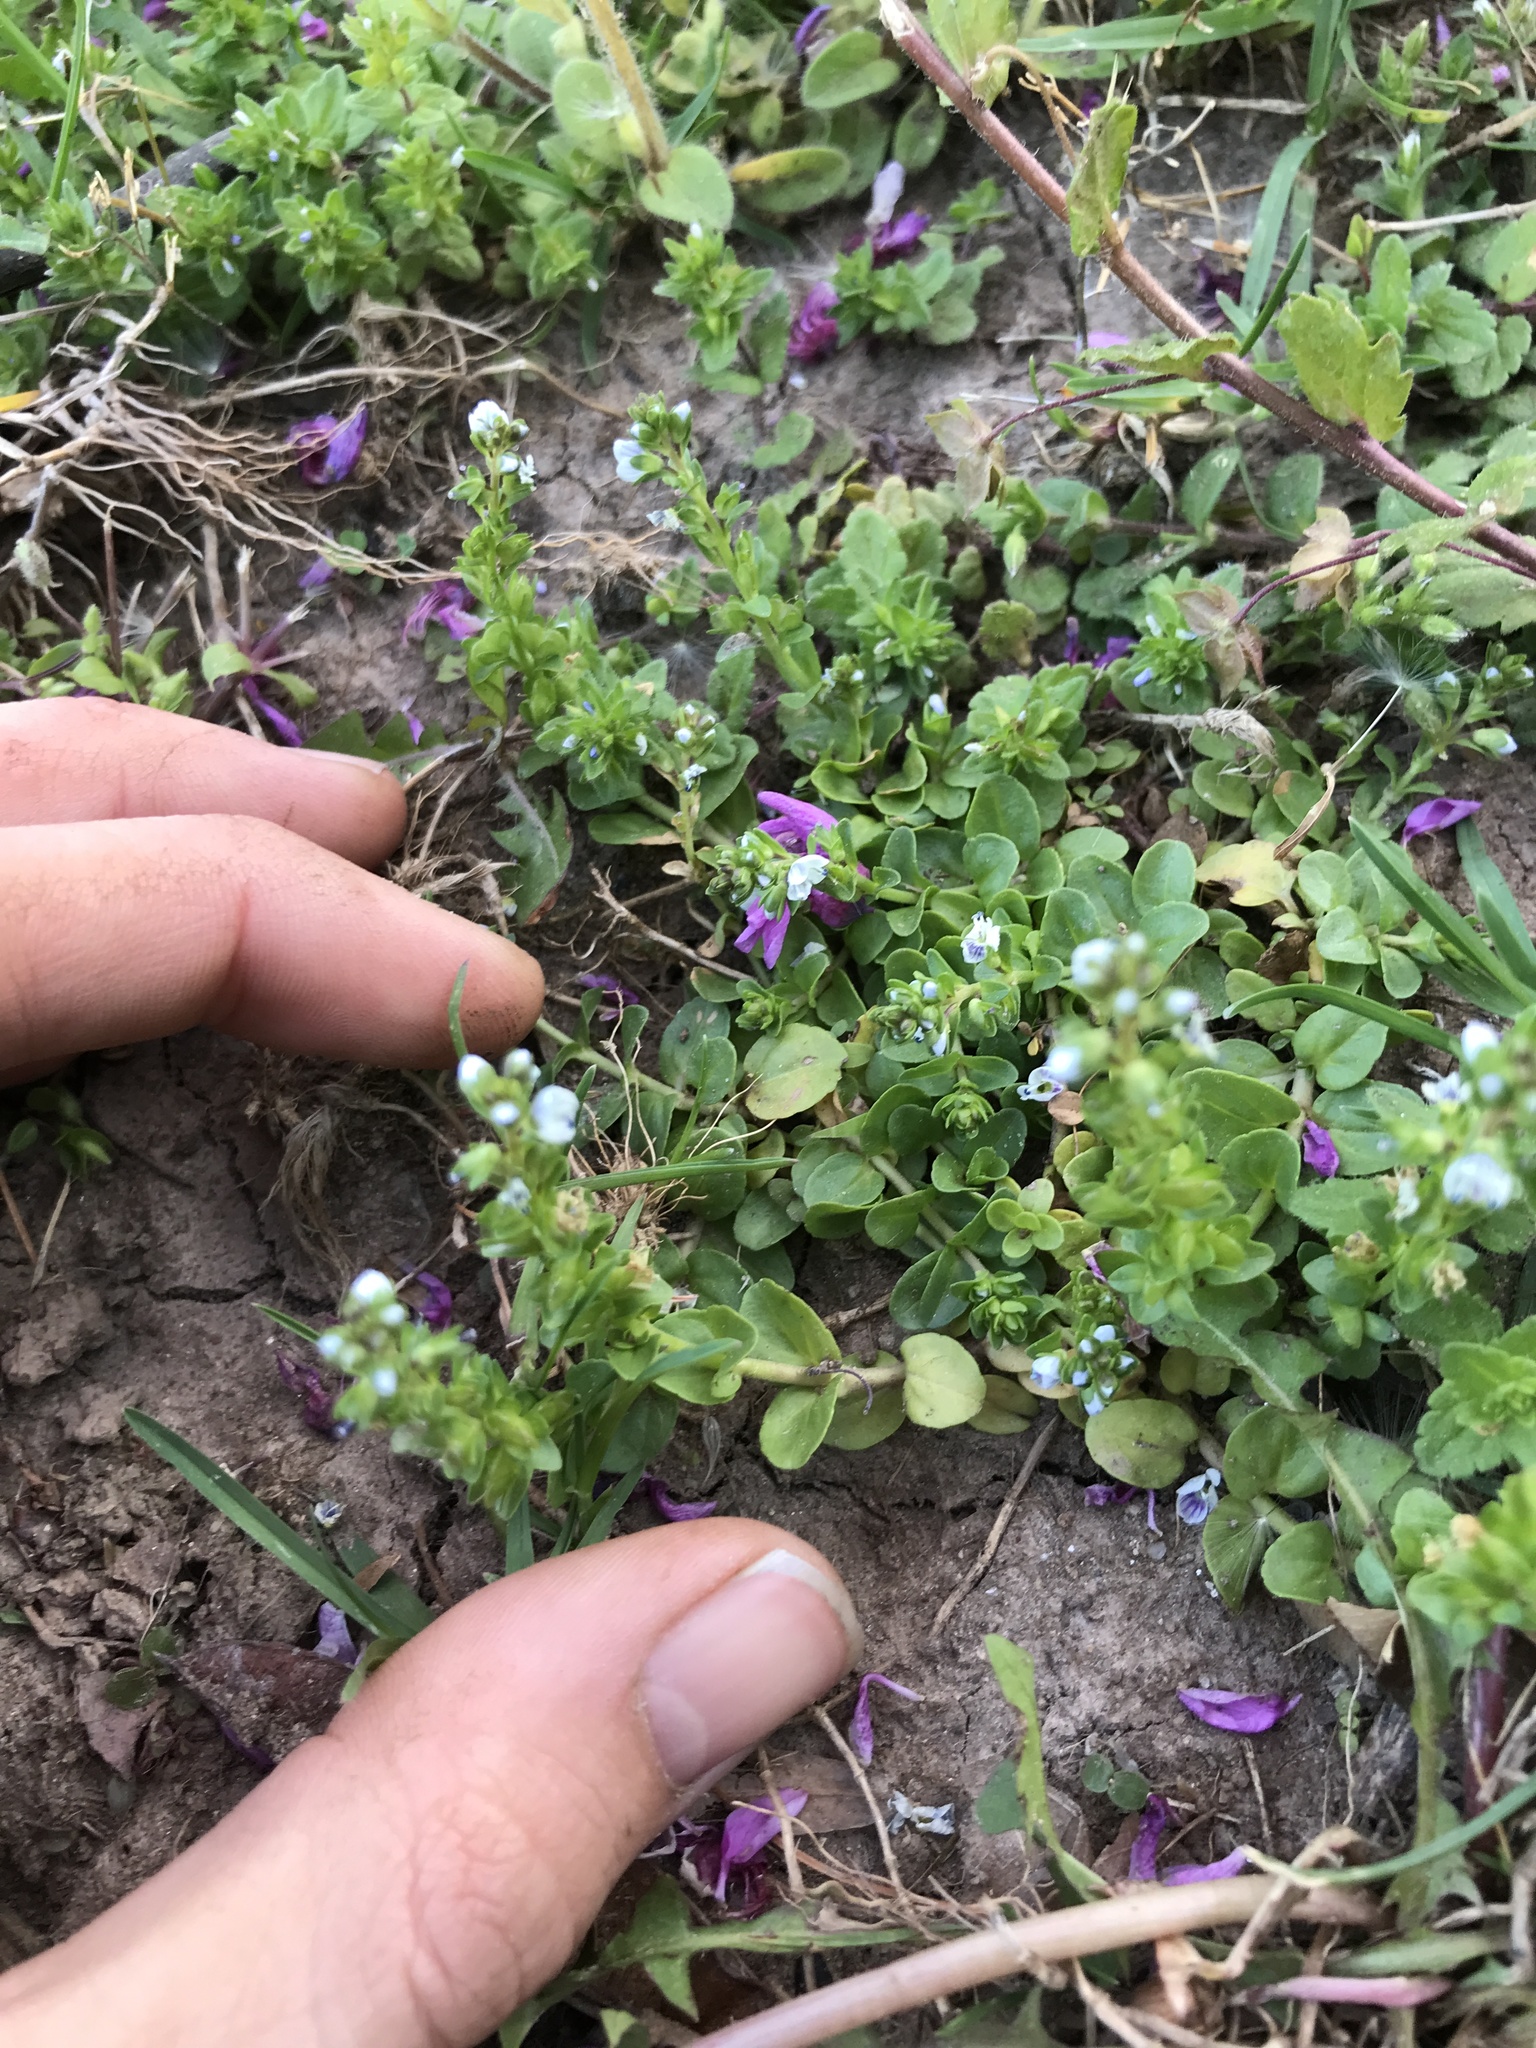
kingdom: Plantae
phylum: Tracheophyta
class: Magnoliopsida
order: Lamiales
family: Plantaginaceae
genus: Veronica
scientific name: Veronica serpyllifolia
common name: Thyme-leaved speedwell
